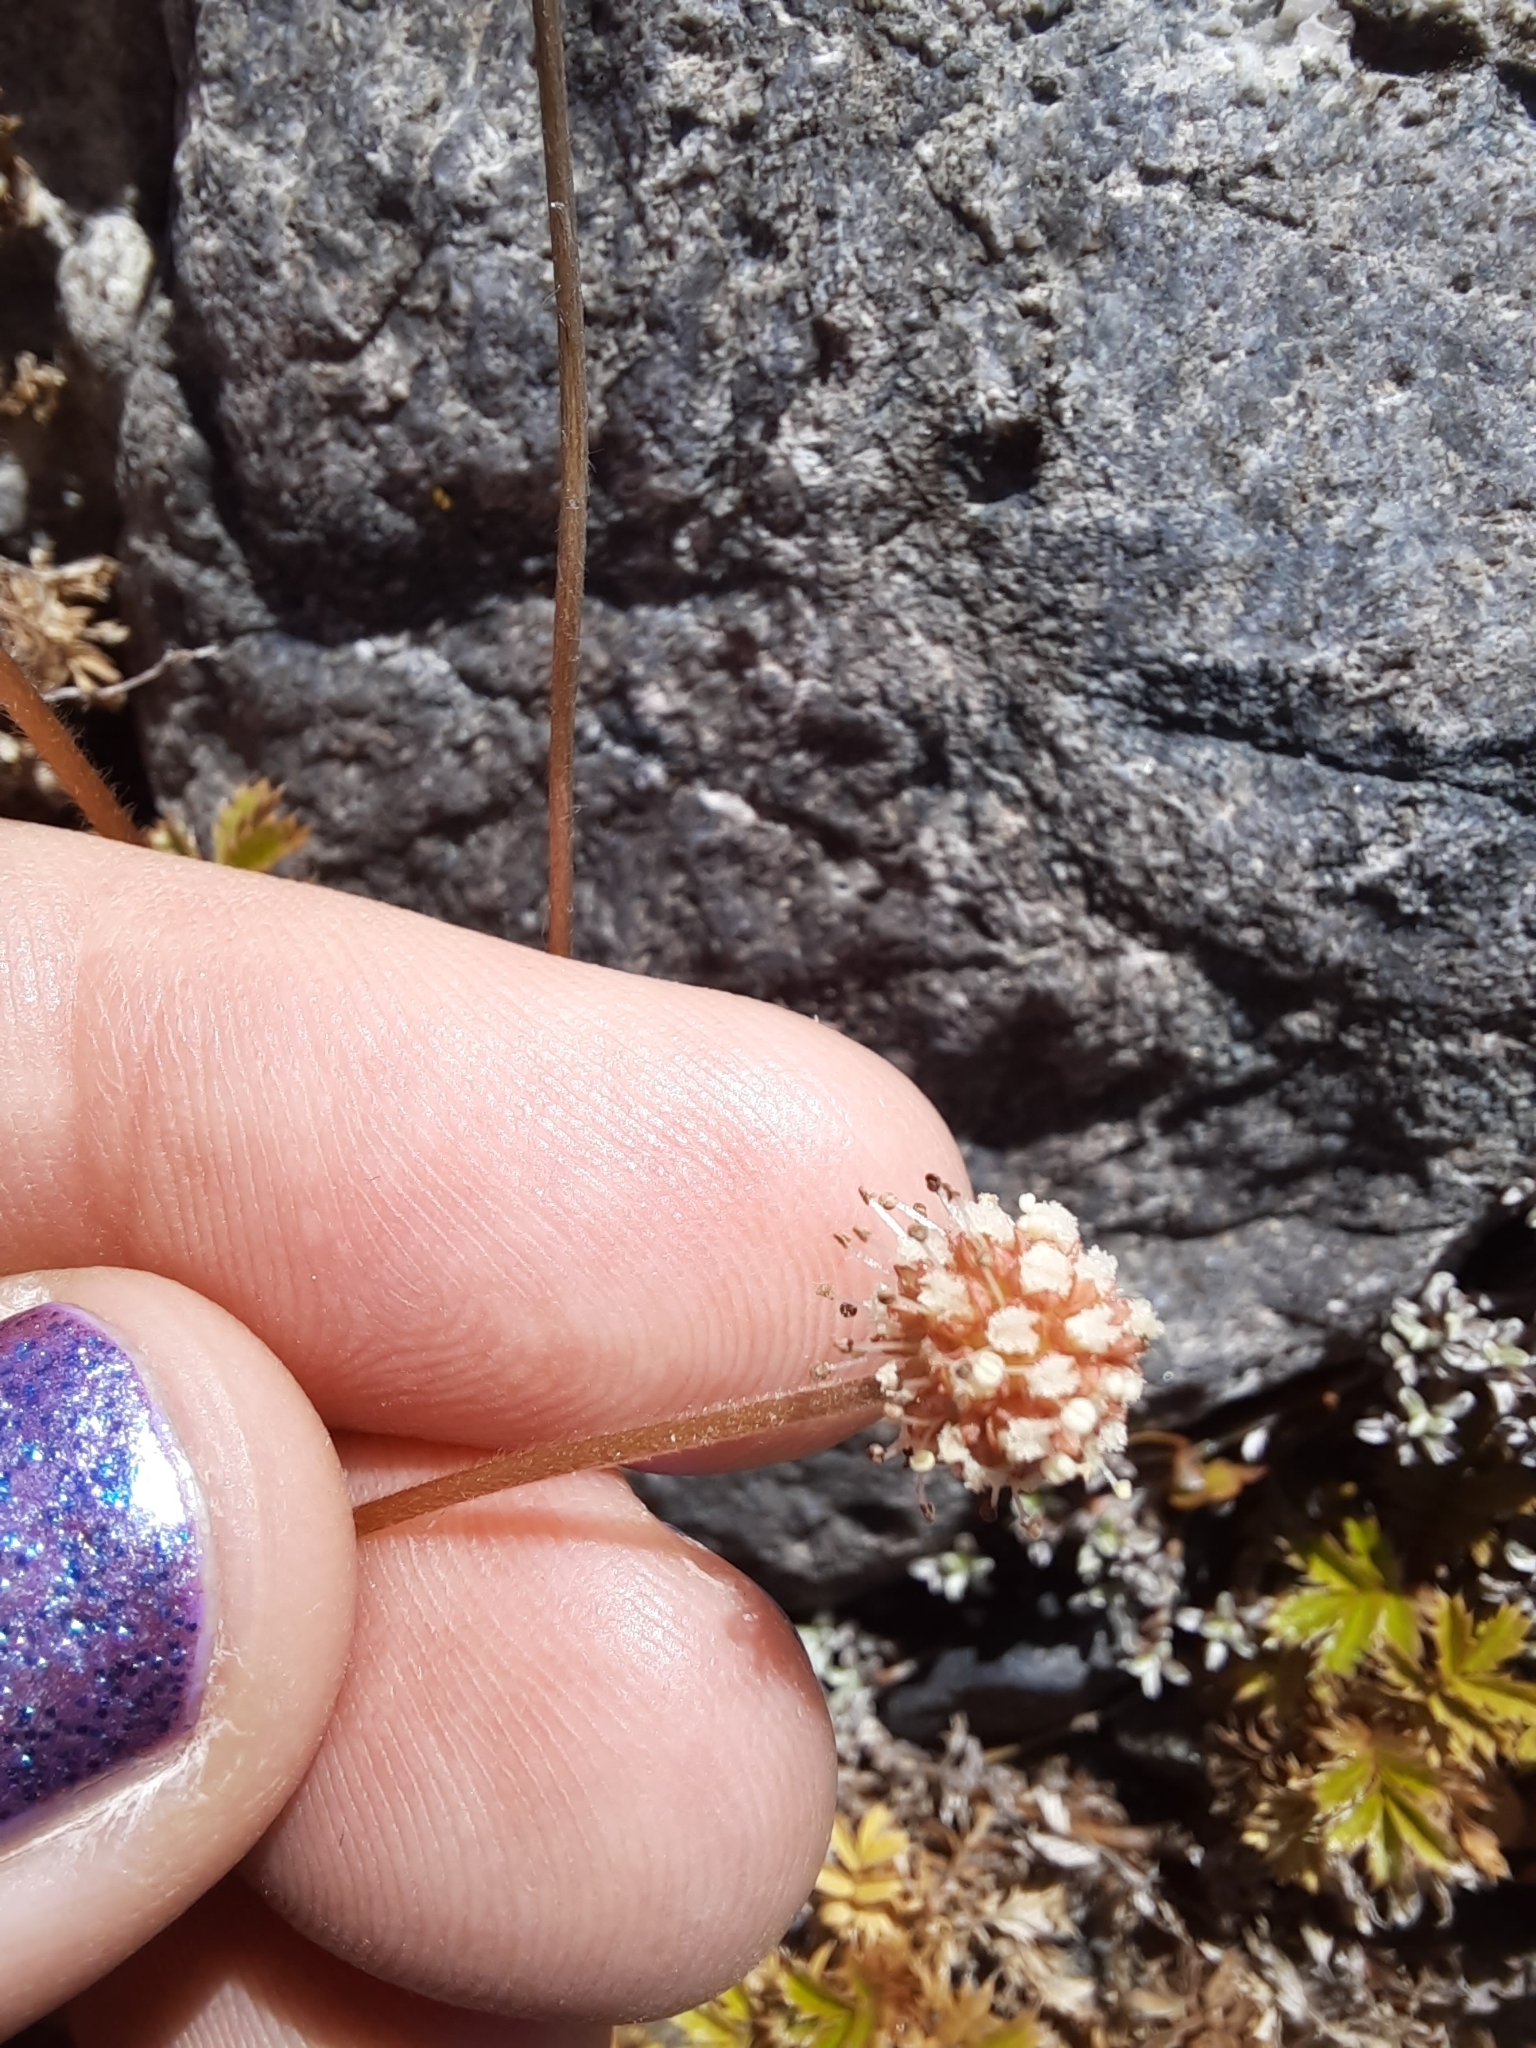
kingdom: Plantae
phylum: Tracheophyta
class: Magnoliopsida
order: Rosales
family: Rosaceae
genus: Acaena
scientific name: Acaena anserinifolia
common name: Bronze pirri-pirri-bur
